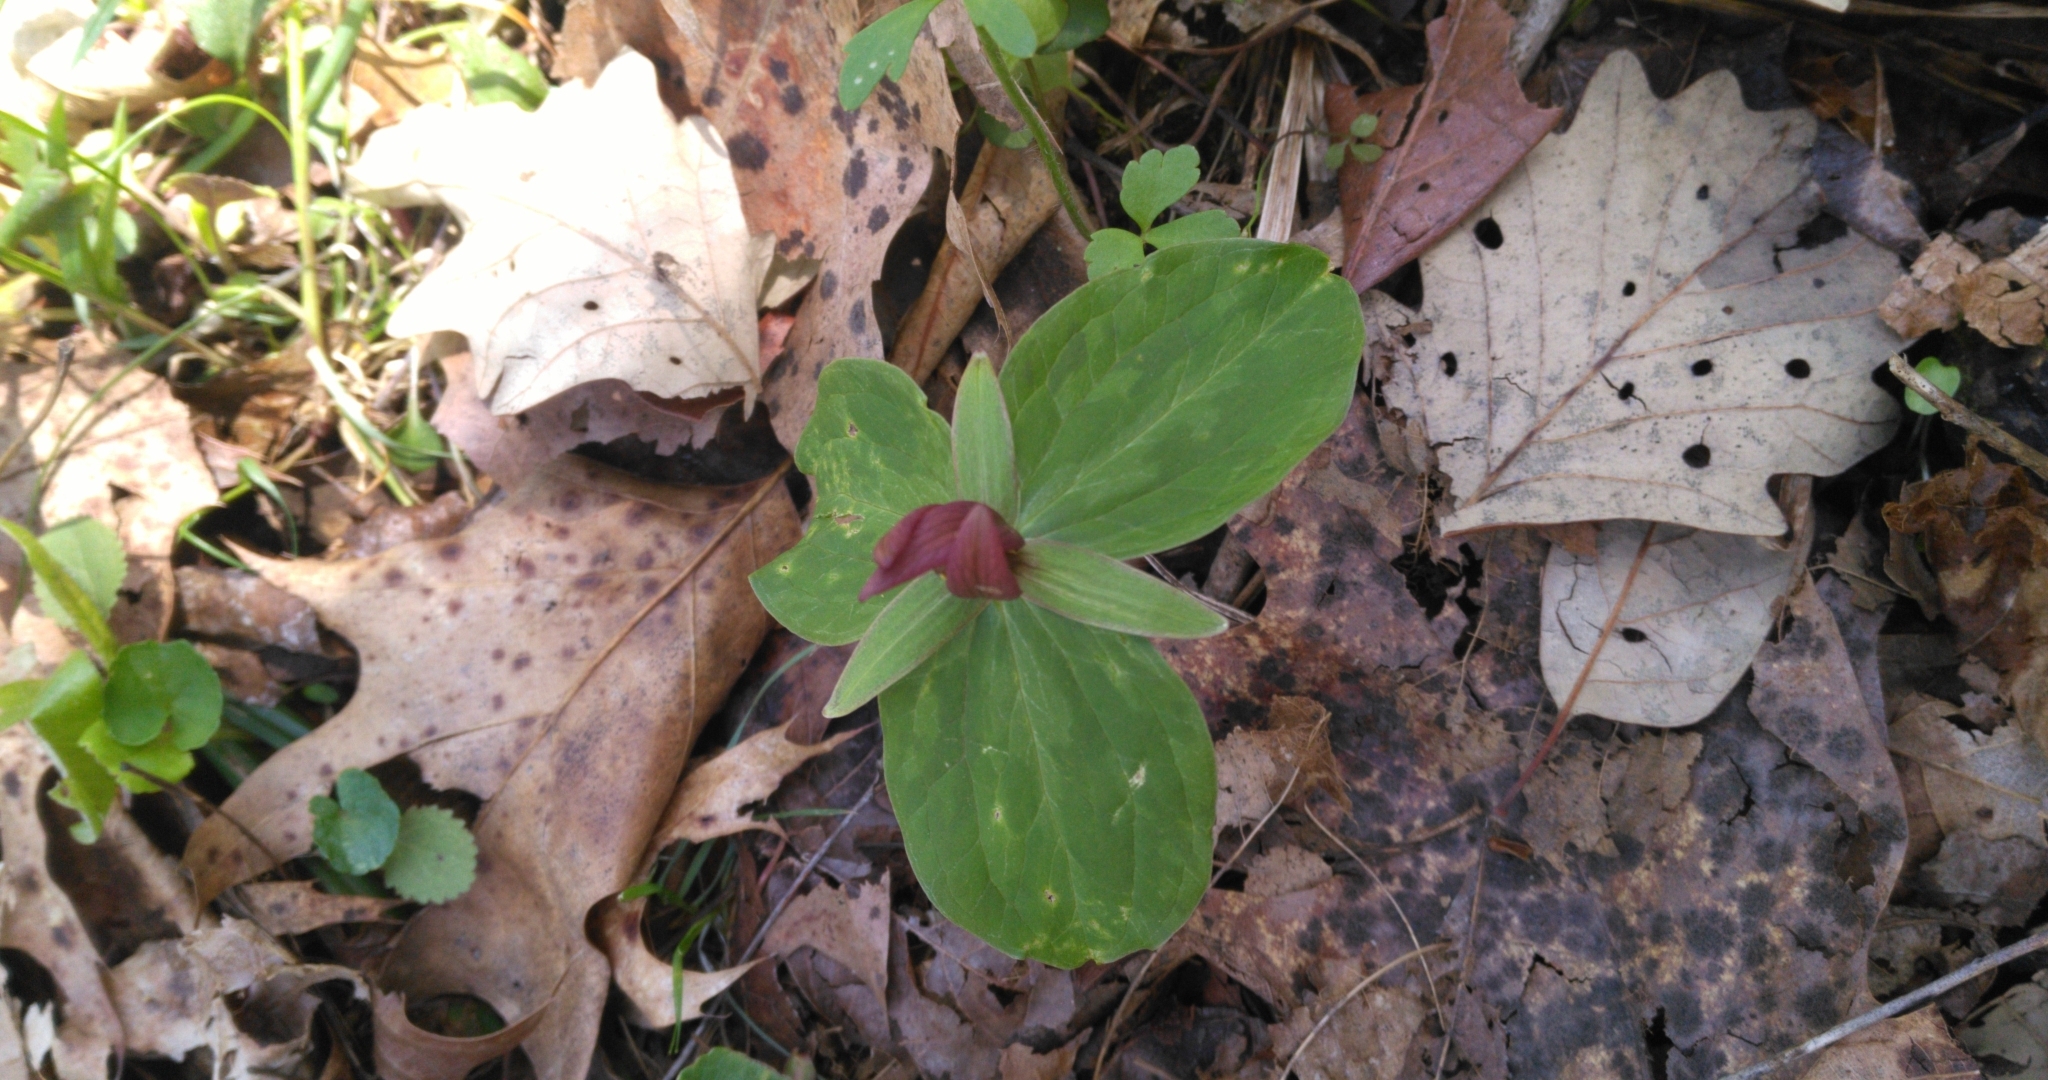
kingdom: Plantae
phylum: Tracheophyta
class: Liliopsida
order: Liliales
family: Melanthiaceae
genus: Trillium
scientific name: Trillium sessile
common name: Sessile trillium
